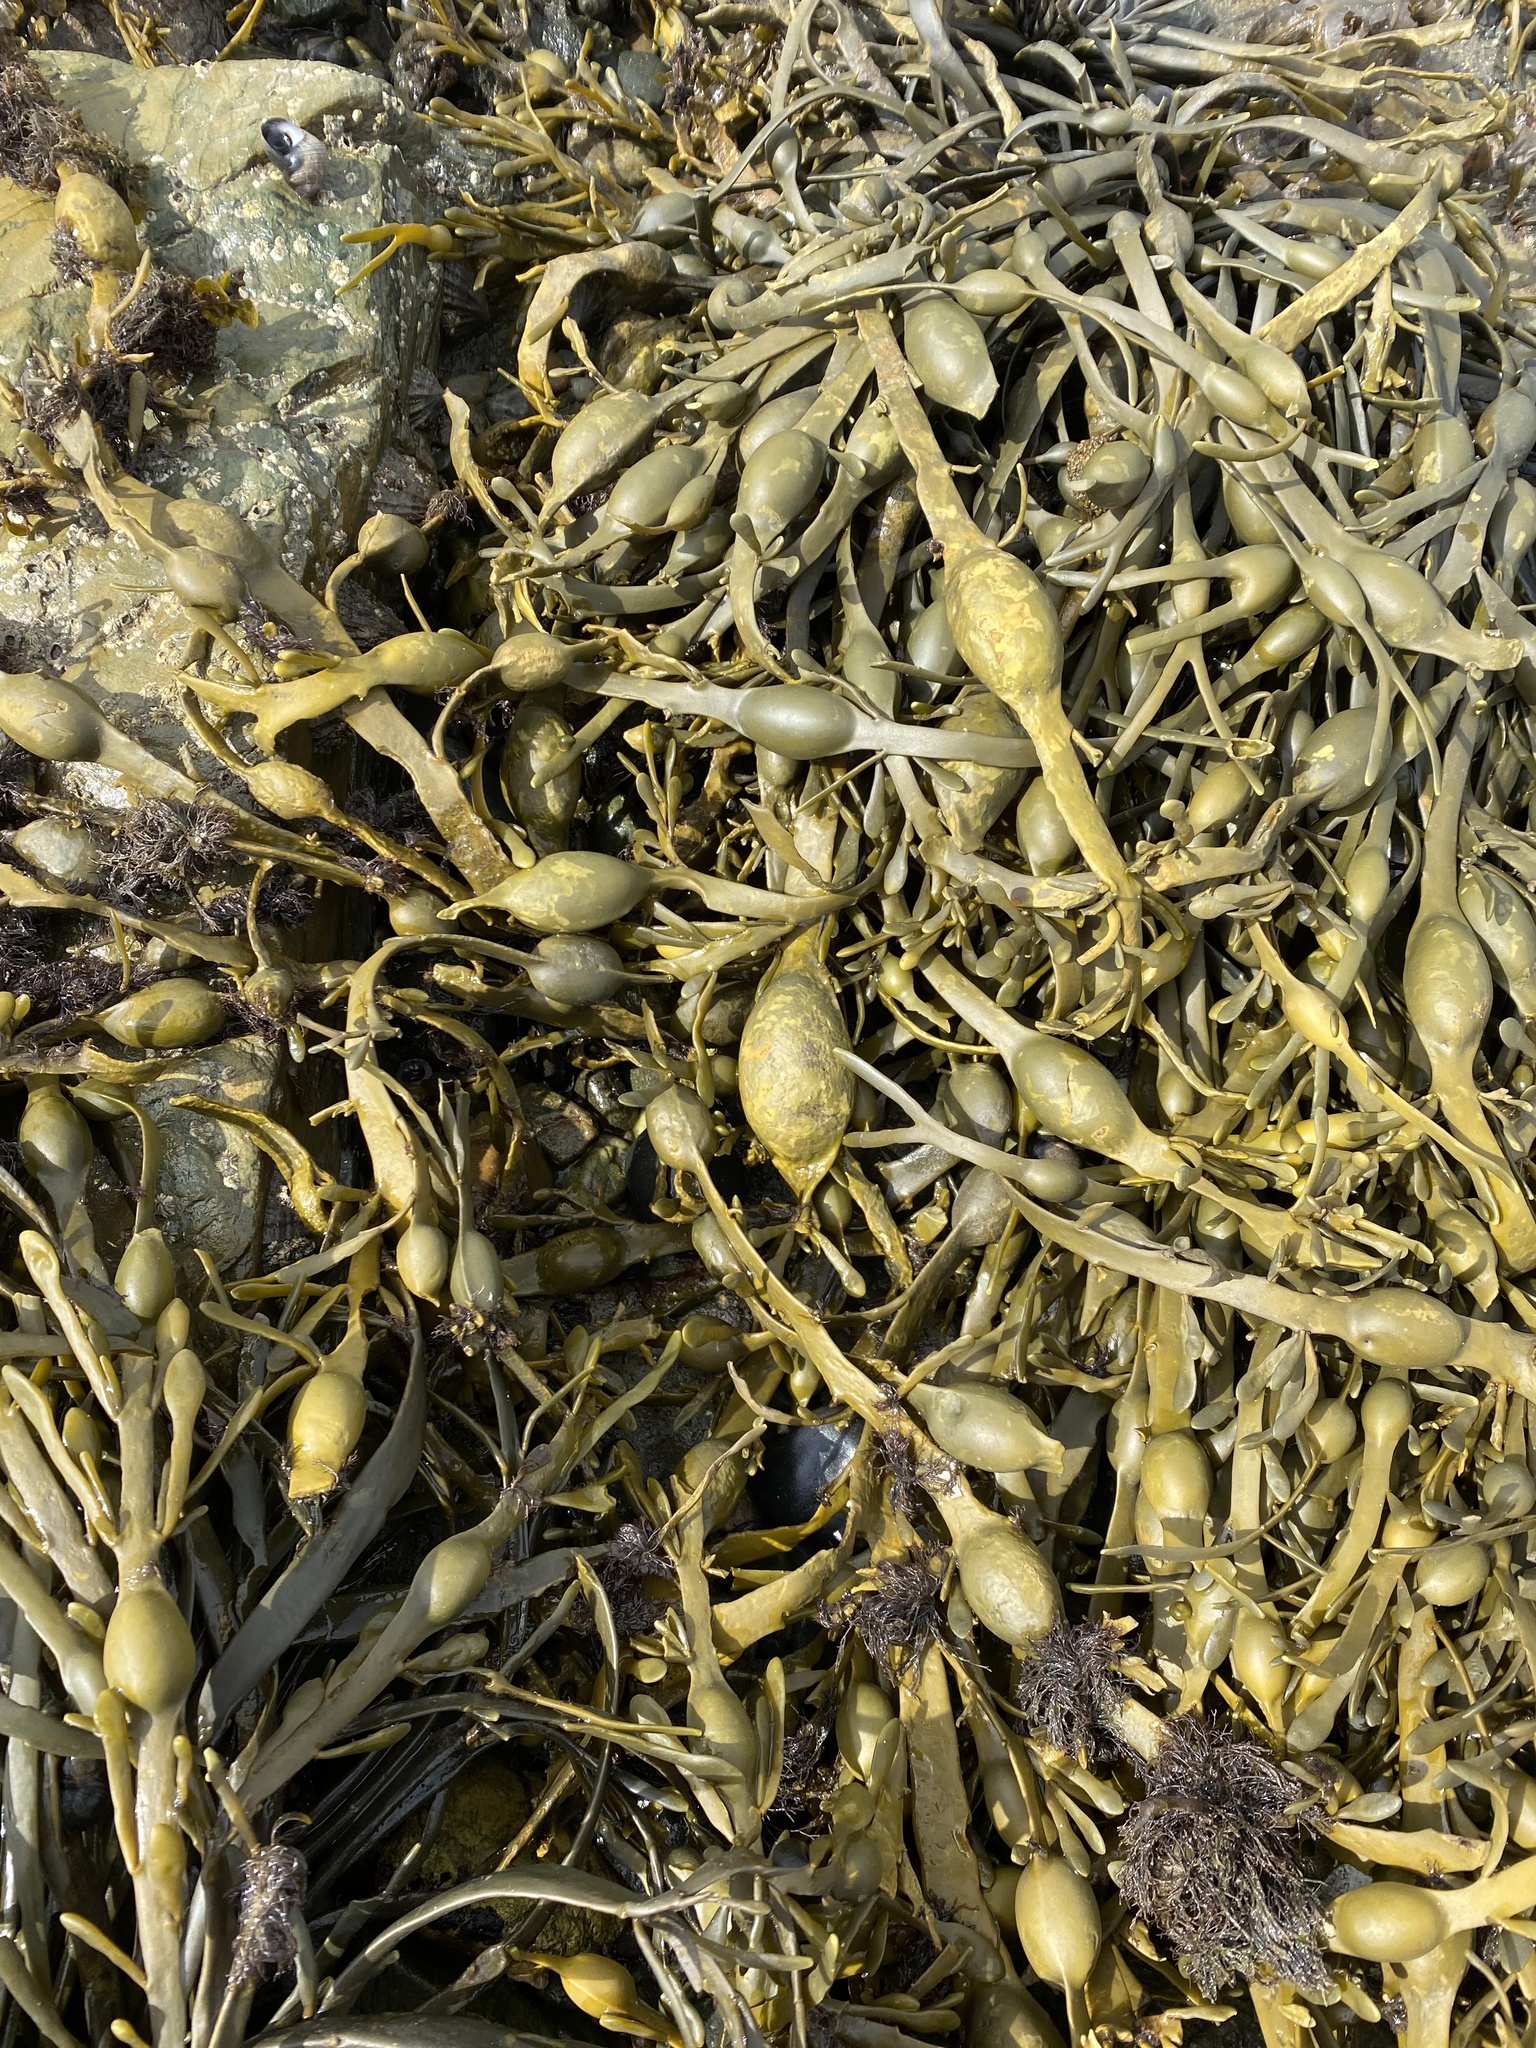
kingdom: Chromista
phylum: Ochrophyta
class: Phaeophyceae
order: Fucales
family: Fucaceae
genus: Ascophyllum
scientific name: Ascophyllum nodosum
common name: Knotted wrack
